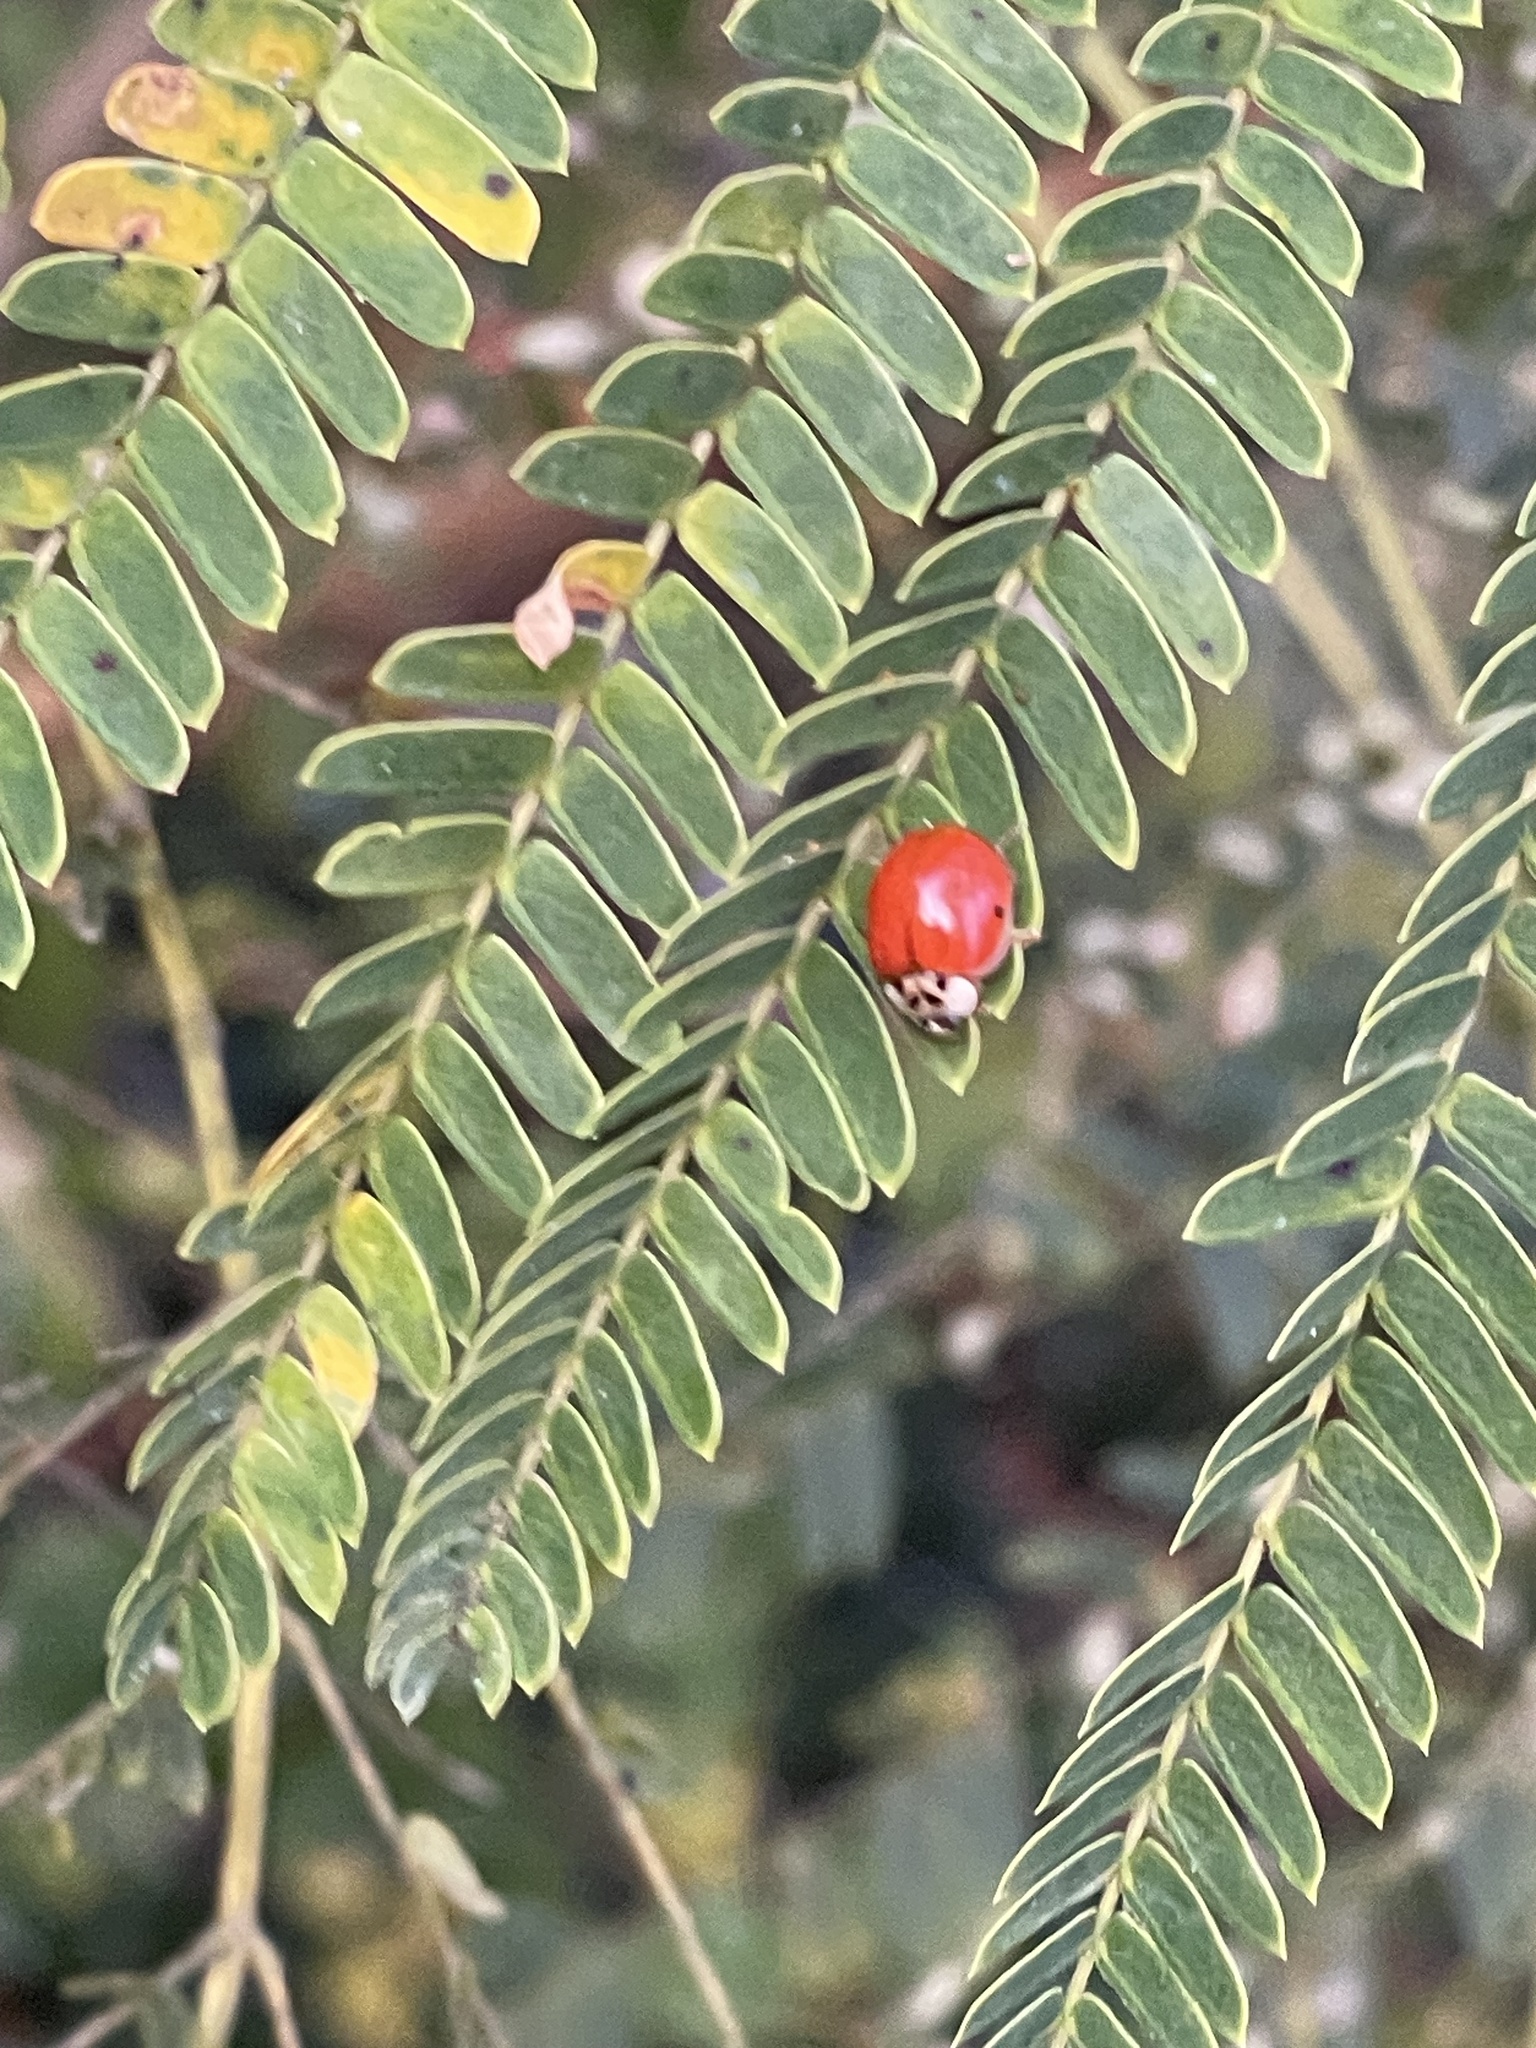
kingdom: Animalia
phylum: Arthropoda
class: Insecta
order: Coleoptera
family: Coccinellidae
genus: Harmonia
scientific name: Harmonia axyridis
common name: Harlequin ladybird
